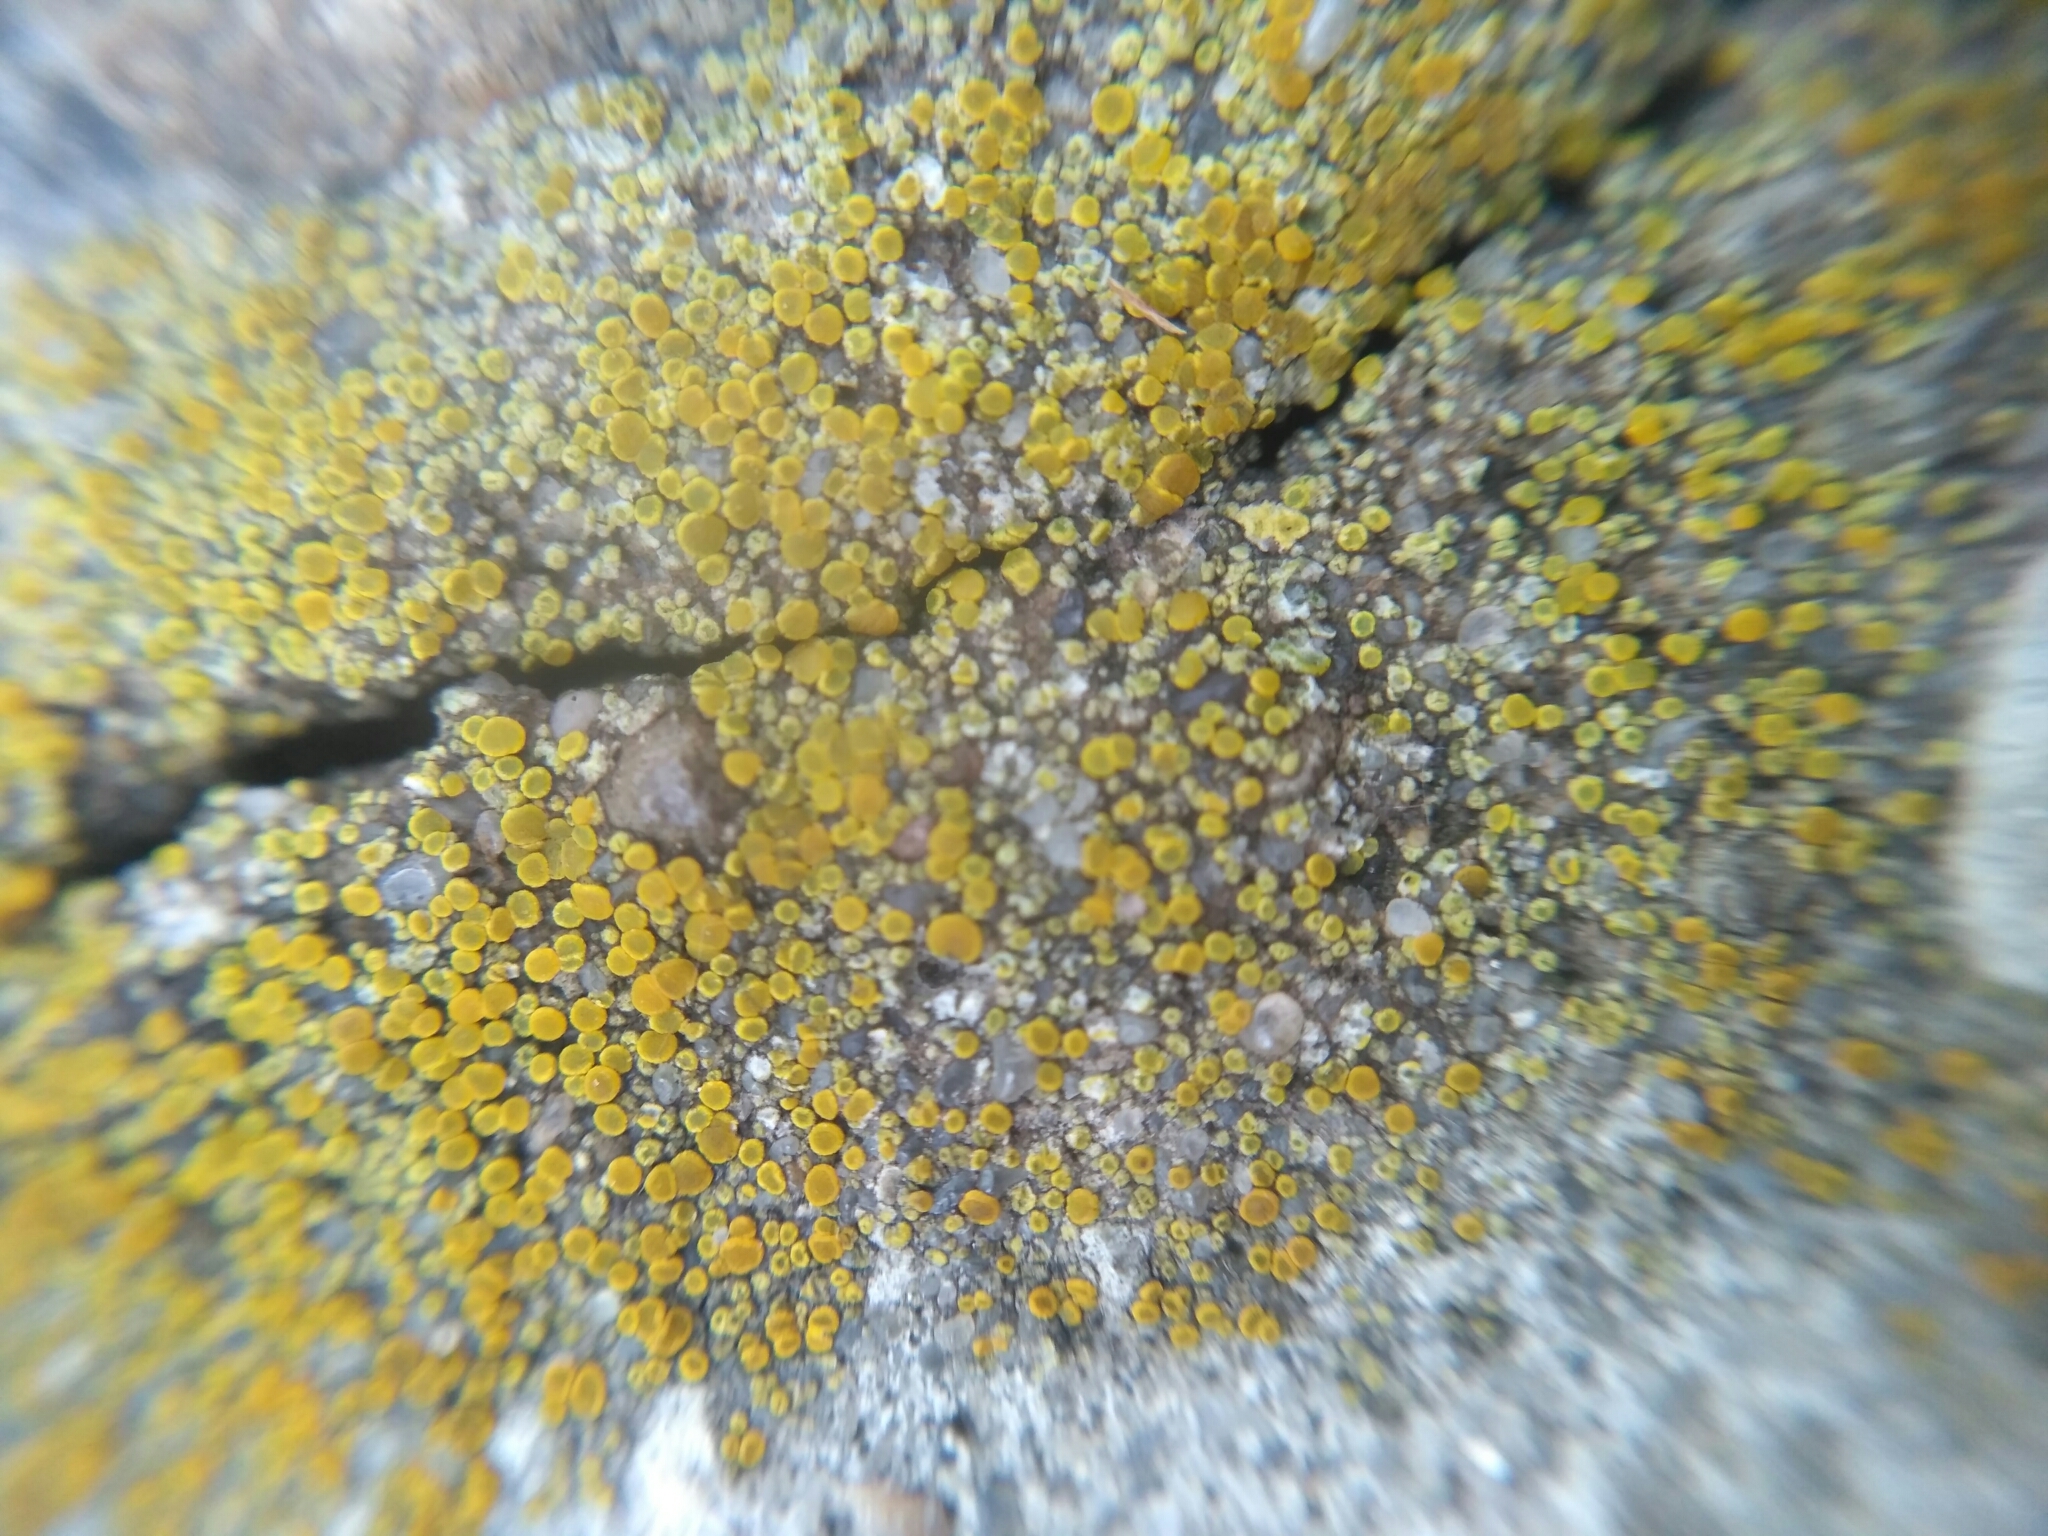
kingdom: Fungi
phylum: Ascomycota
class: Candelariomycetes
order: Candelariales
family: Candelariaceae
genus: Candelariella
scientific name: Candelariella aurella
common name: Hidden goldspeck lichen
